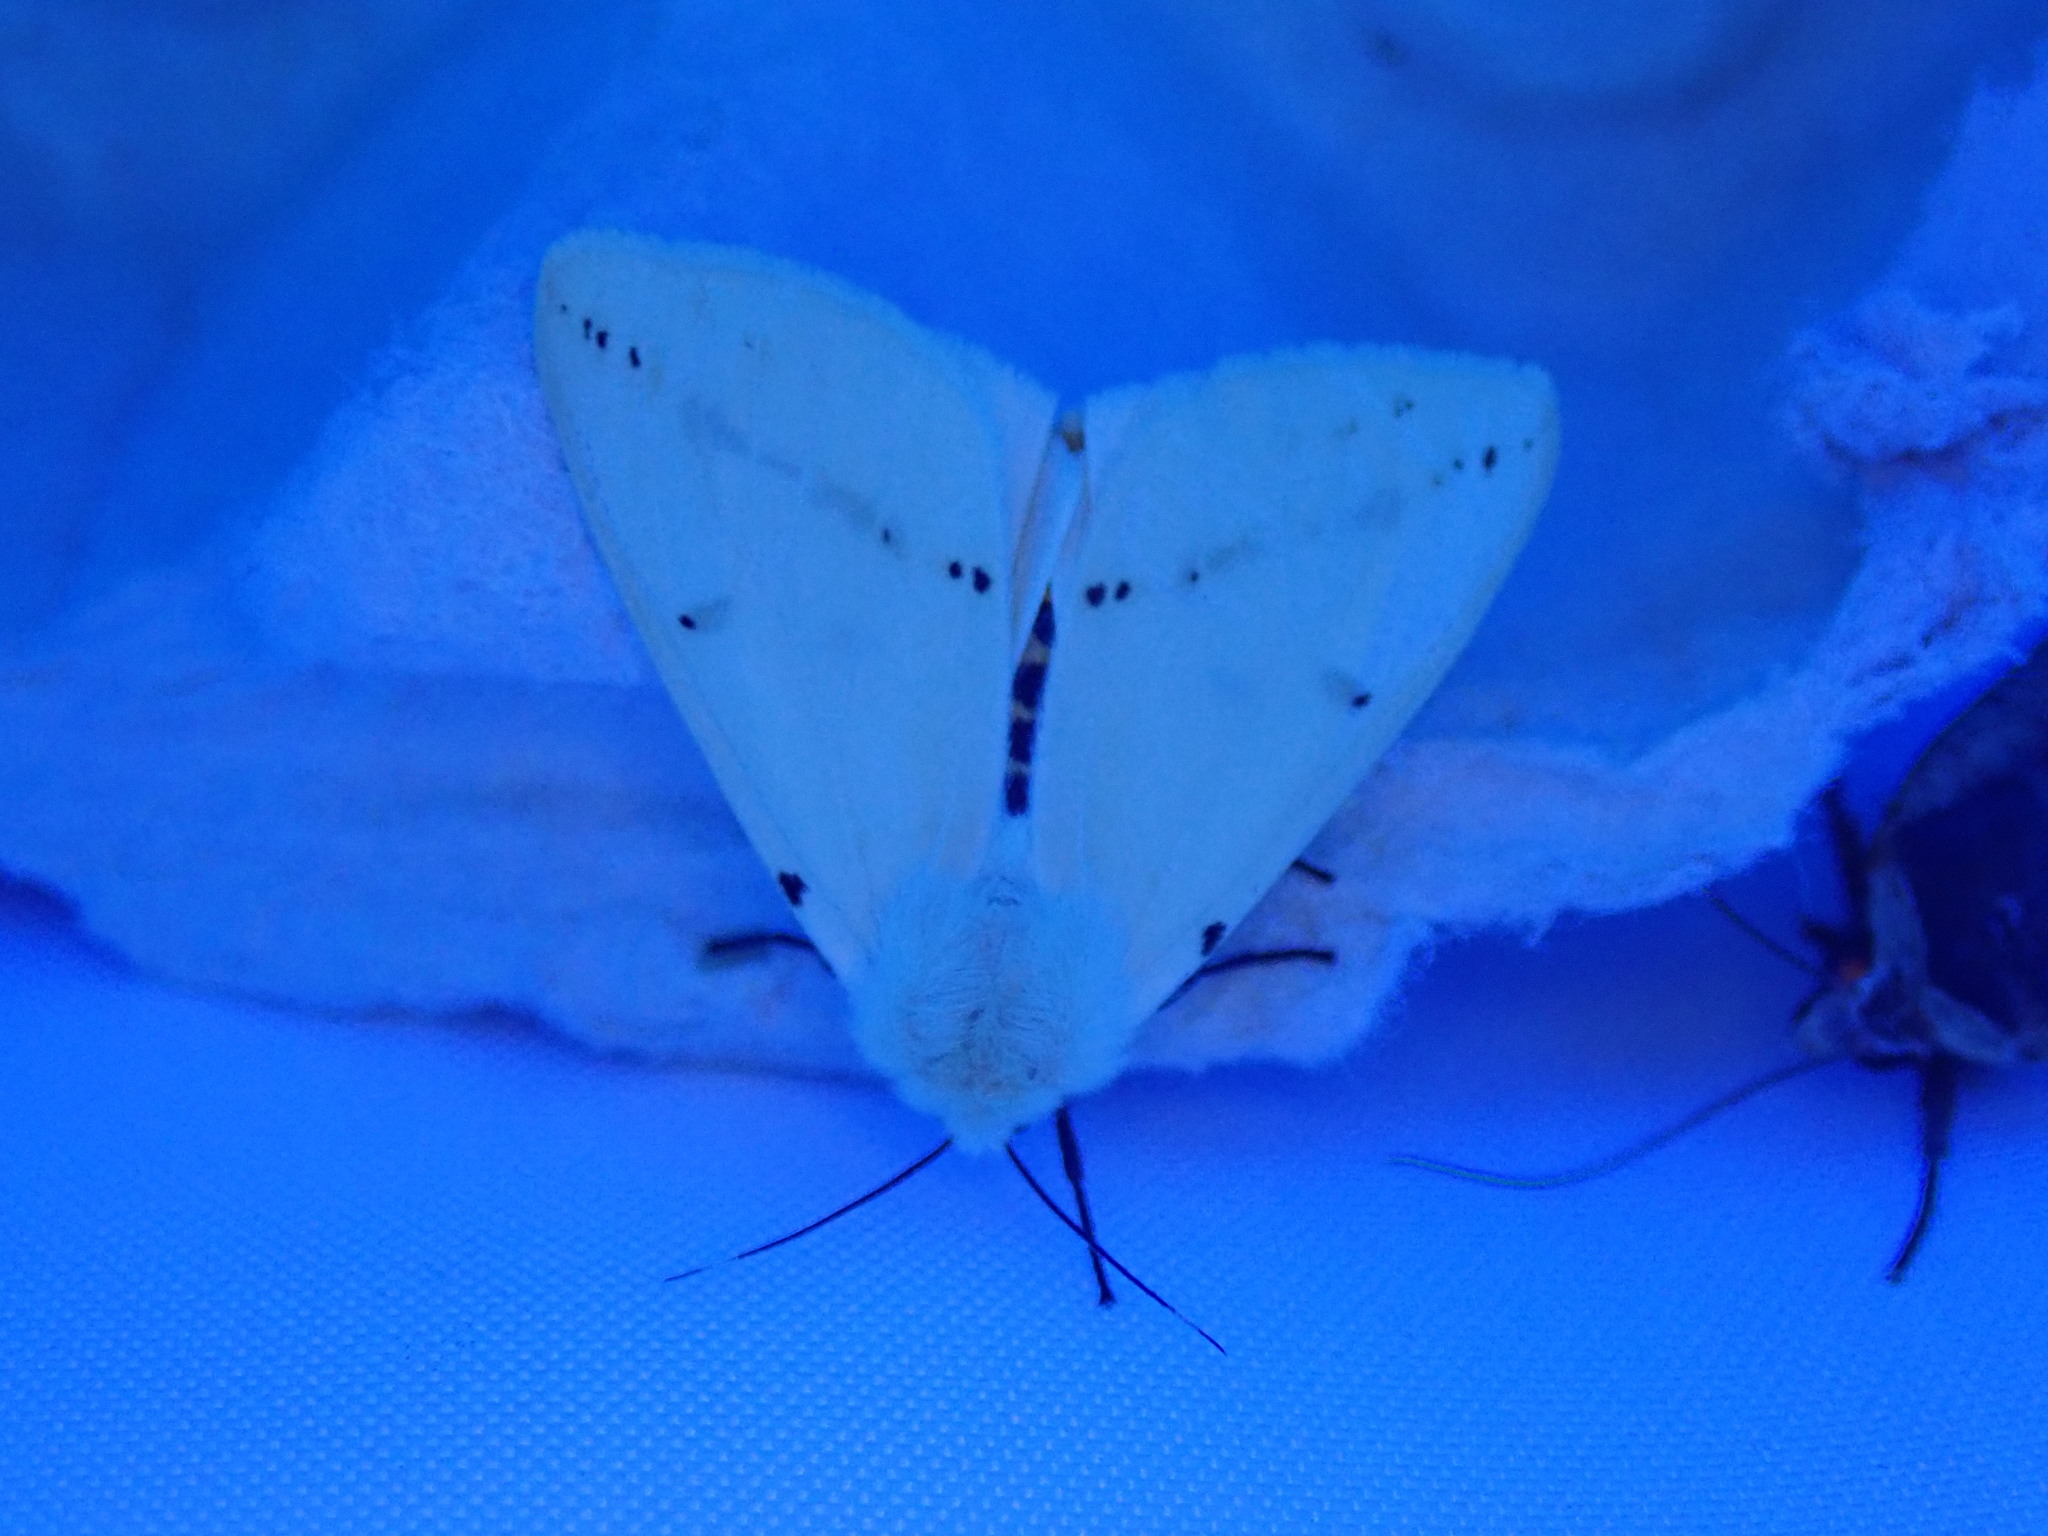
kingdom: Animalia
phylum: Arthropoda
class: Insecta
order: Lepidoptera
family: Erebidae
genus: Spilarctia
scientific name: Spilarctia lutea
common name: Buff ermine
